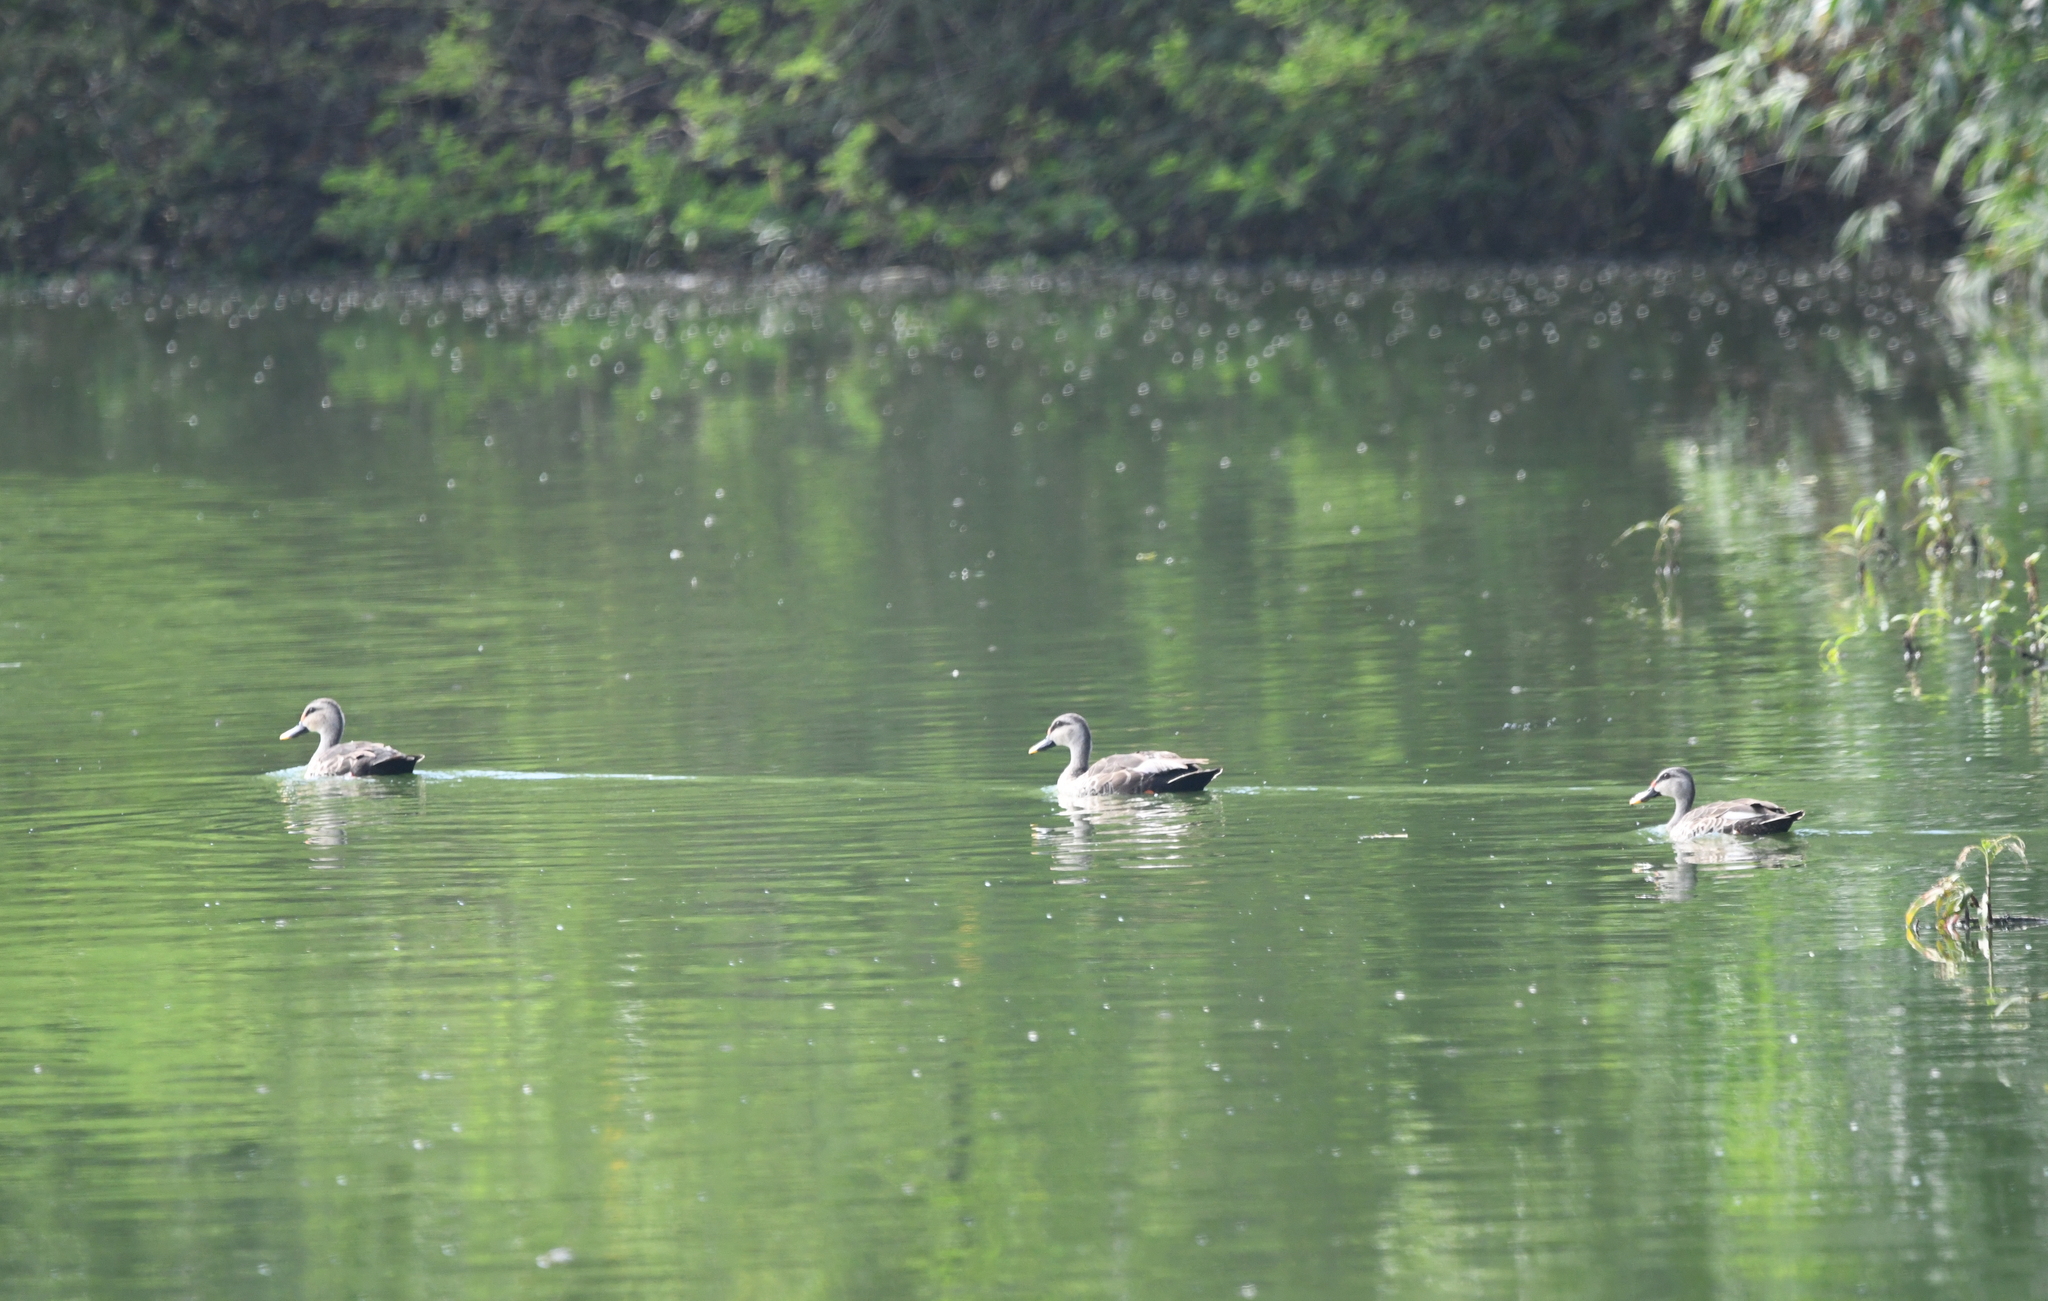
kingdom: Animalia
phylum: Chordata
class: Aves
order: Anseriformes
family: Anatidae
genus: Anas
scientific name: Anas poecilorhyncha
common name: Indian spot-billed duck
